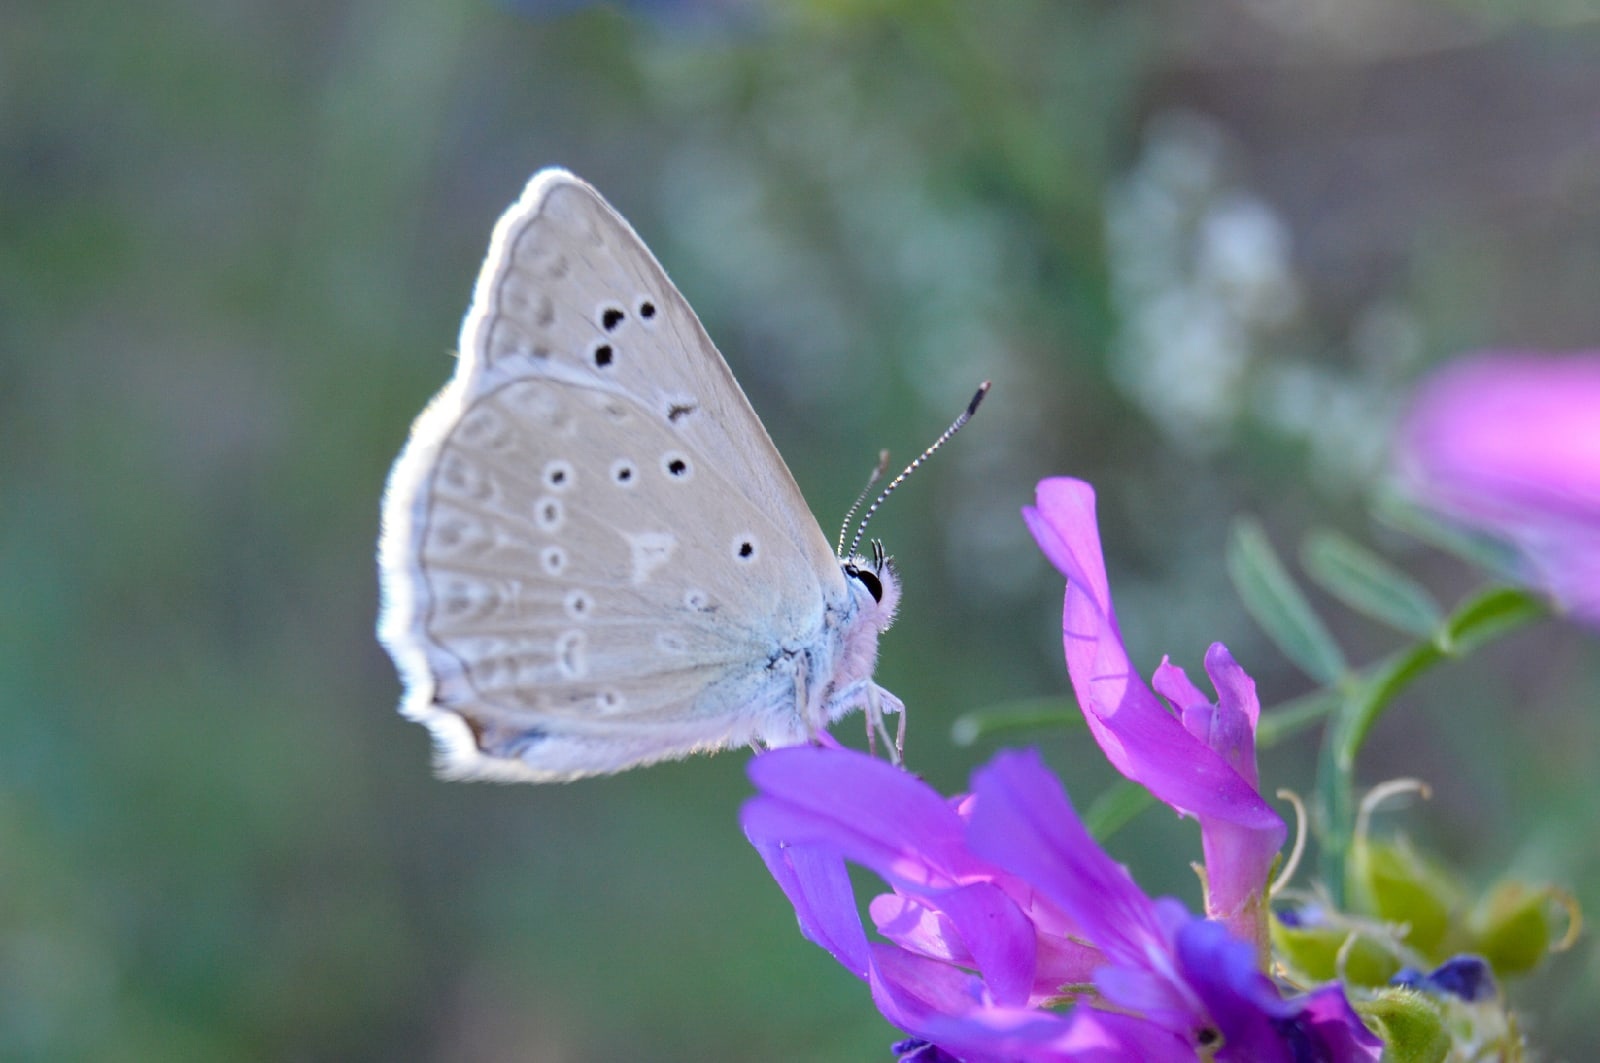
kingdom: Animalia
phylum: Arthropoda
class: Insecta
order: Lepidoptera
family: Lycaenidae
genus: Polyommatus
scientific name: Polyommatus daphnis
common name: Meleager's blue
